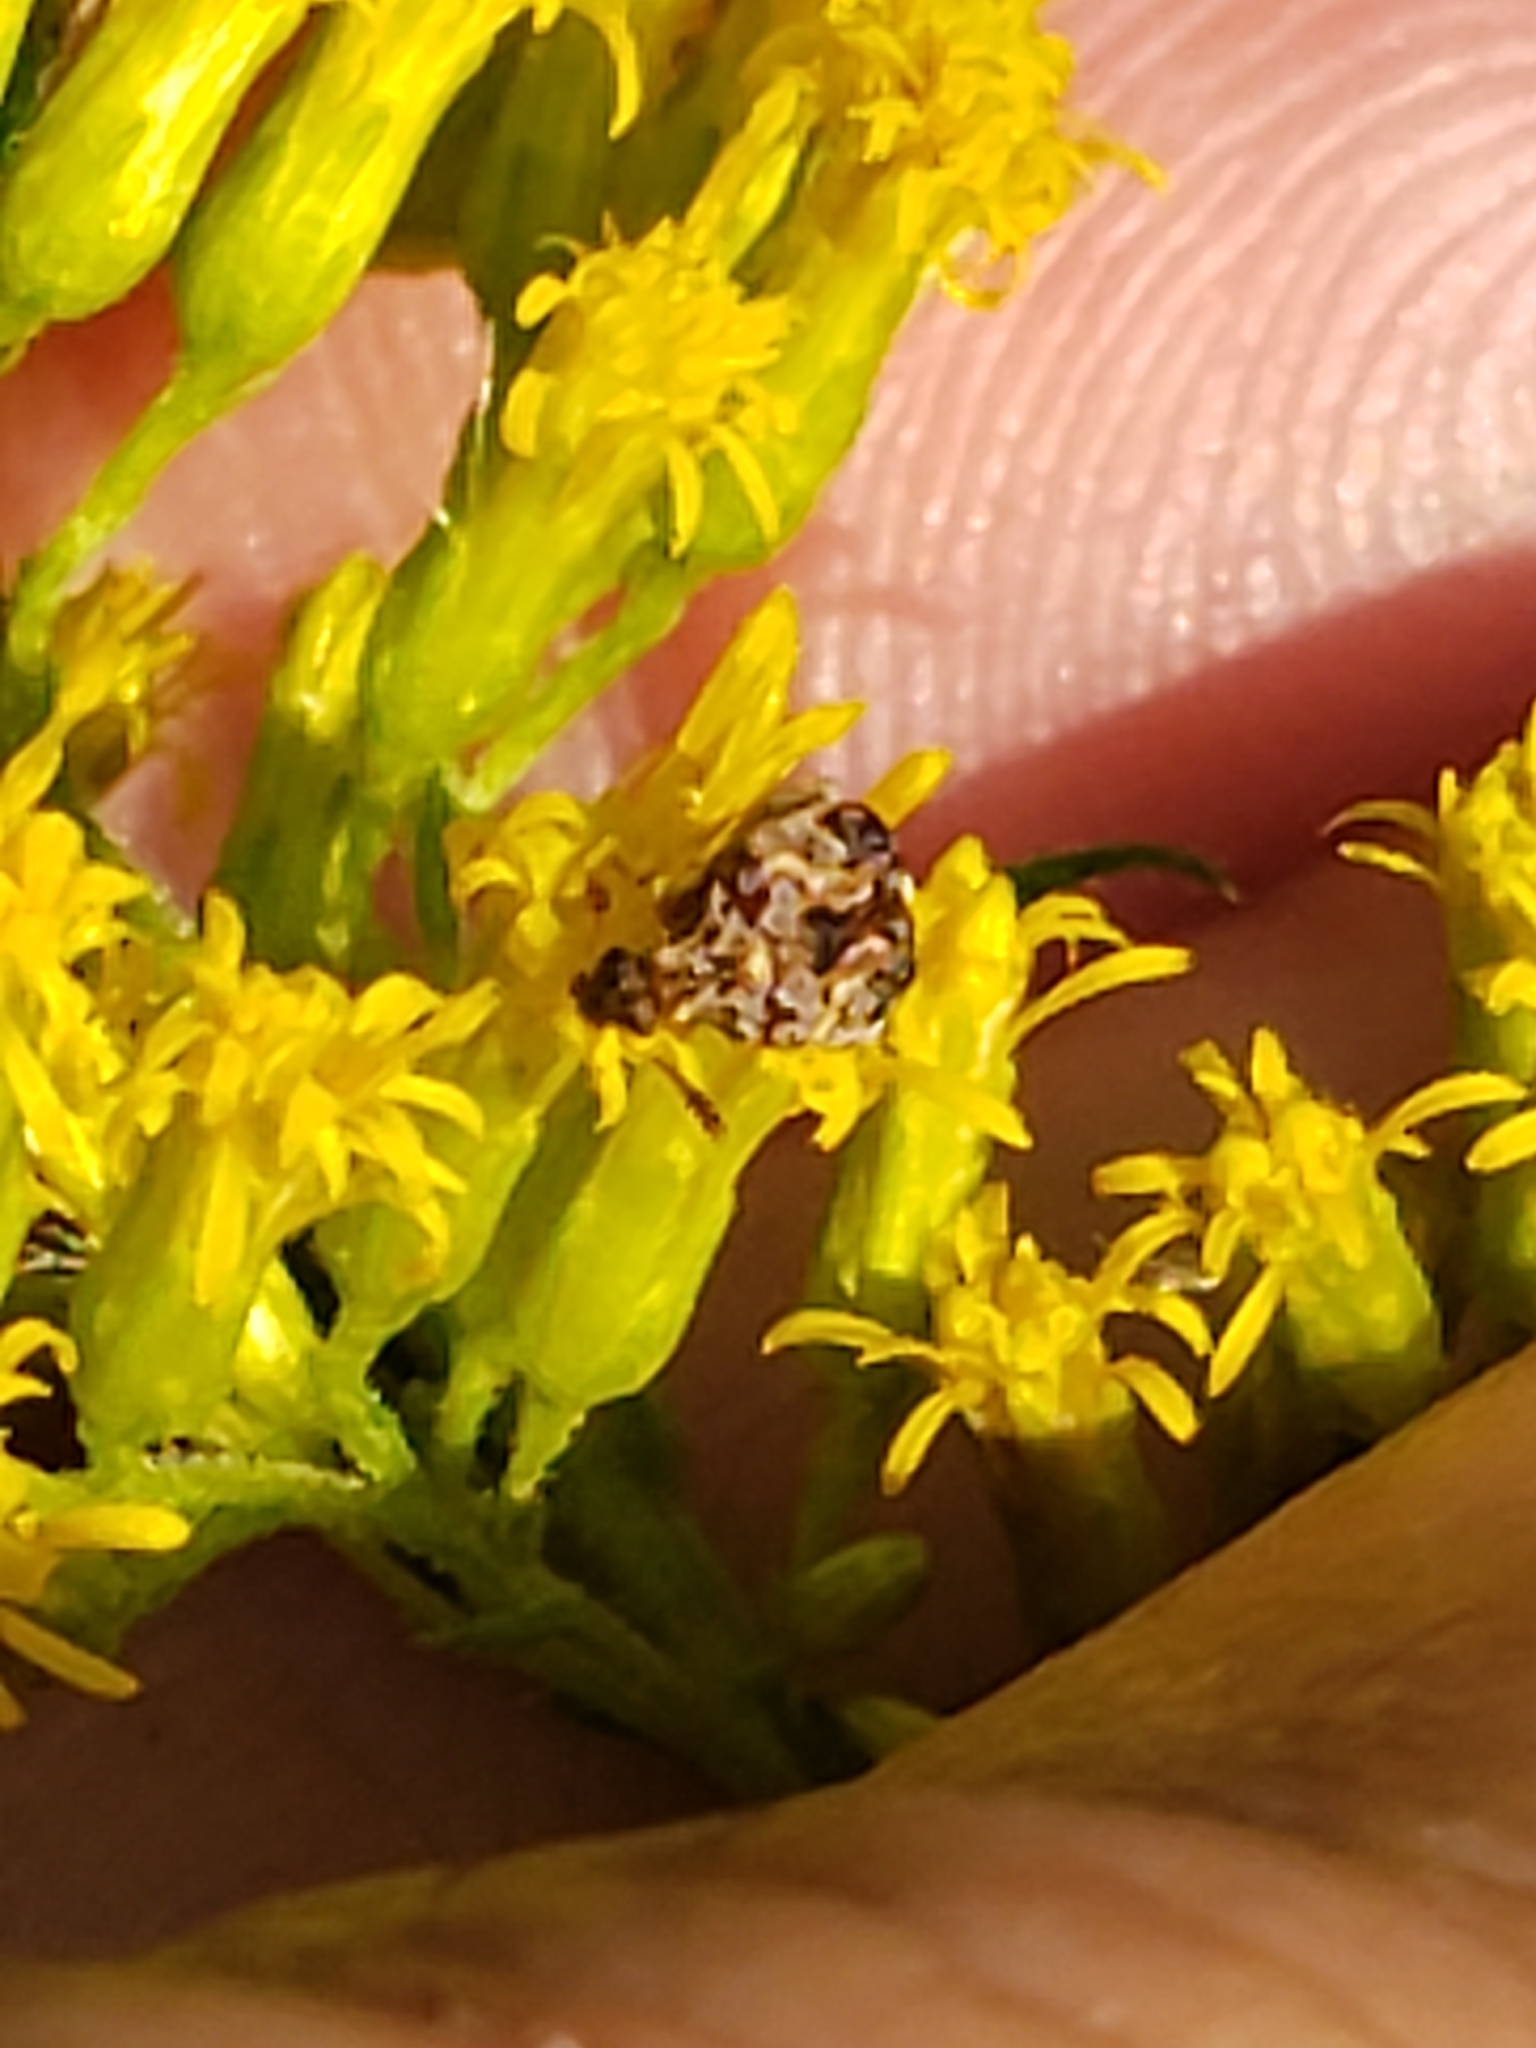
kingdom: Animalia
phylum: Arthropoda
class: Insecta
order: Coleoptera
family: Chrysomelidae
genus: Gibbobruchus
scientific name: Gibbobruchus mimus
